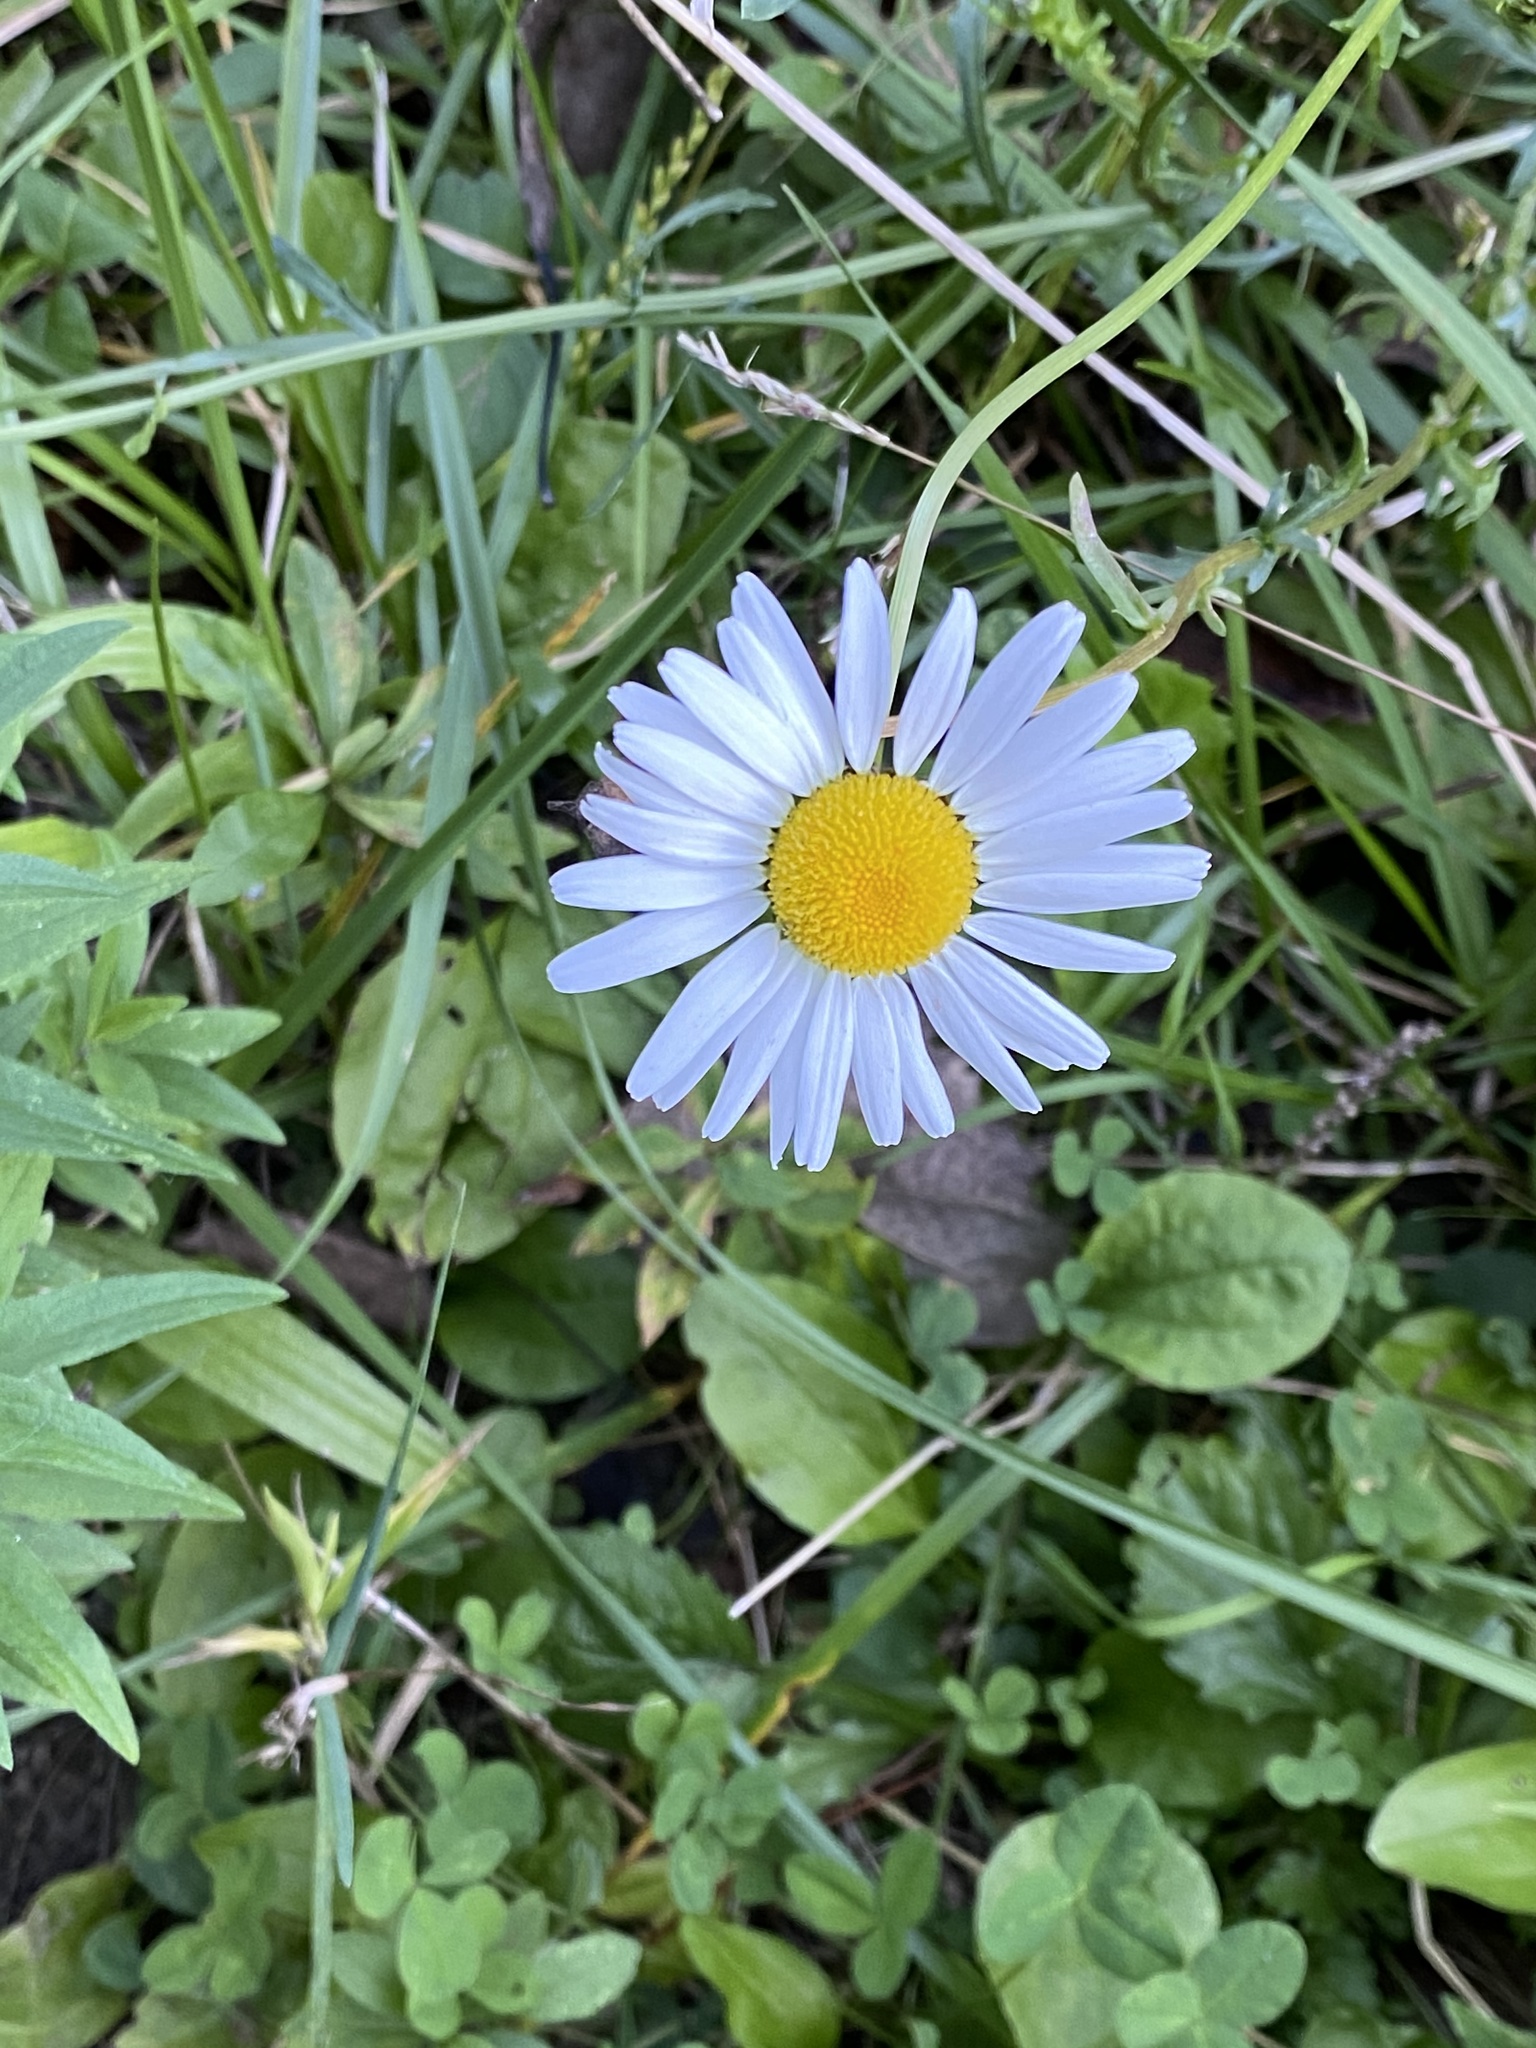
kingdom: Plantae
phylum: Tracheophyta
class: Magnoliopsida
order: Asterales
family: Asteraceae
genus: Leucanthemum
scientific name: Leucanthemum vulgare
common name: Oxeye daisy
